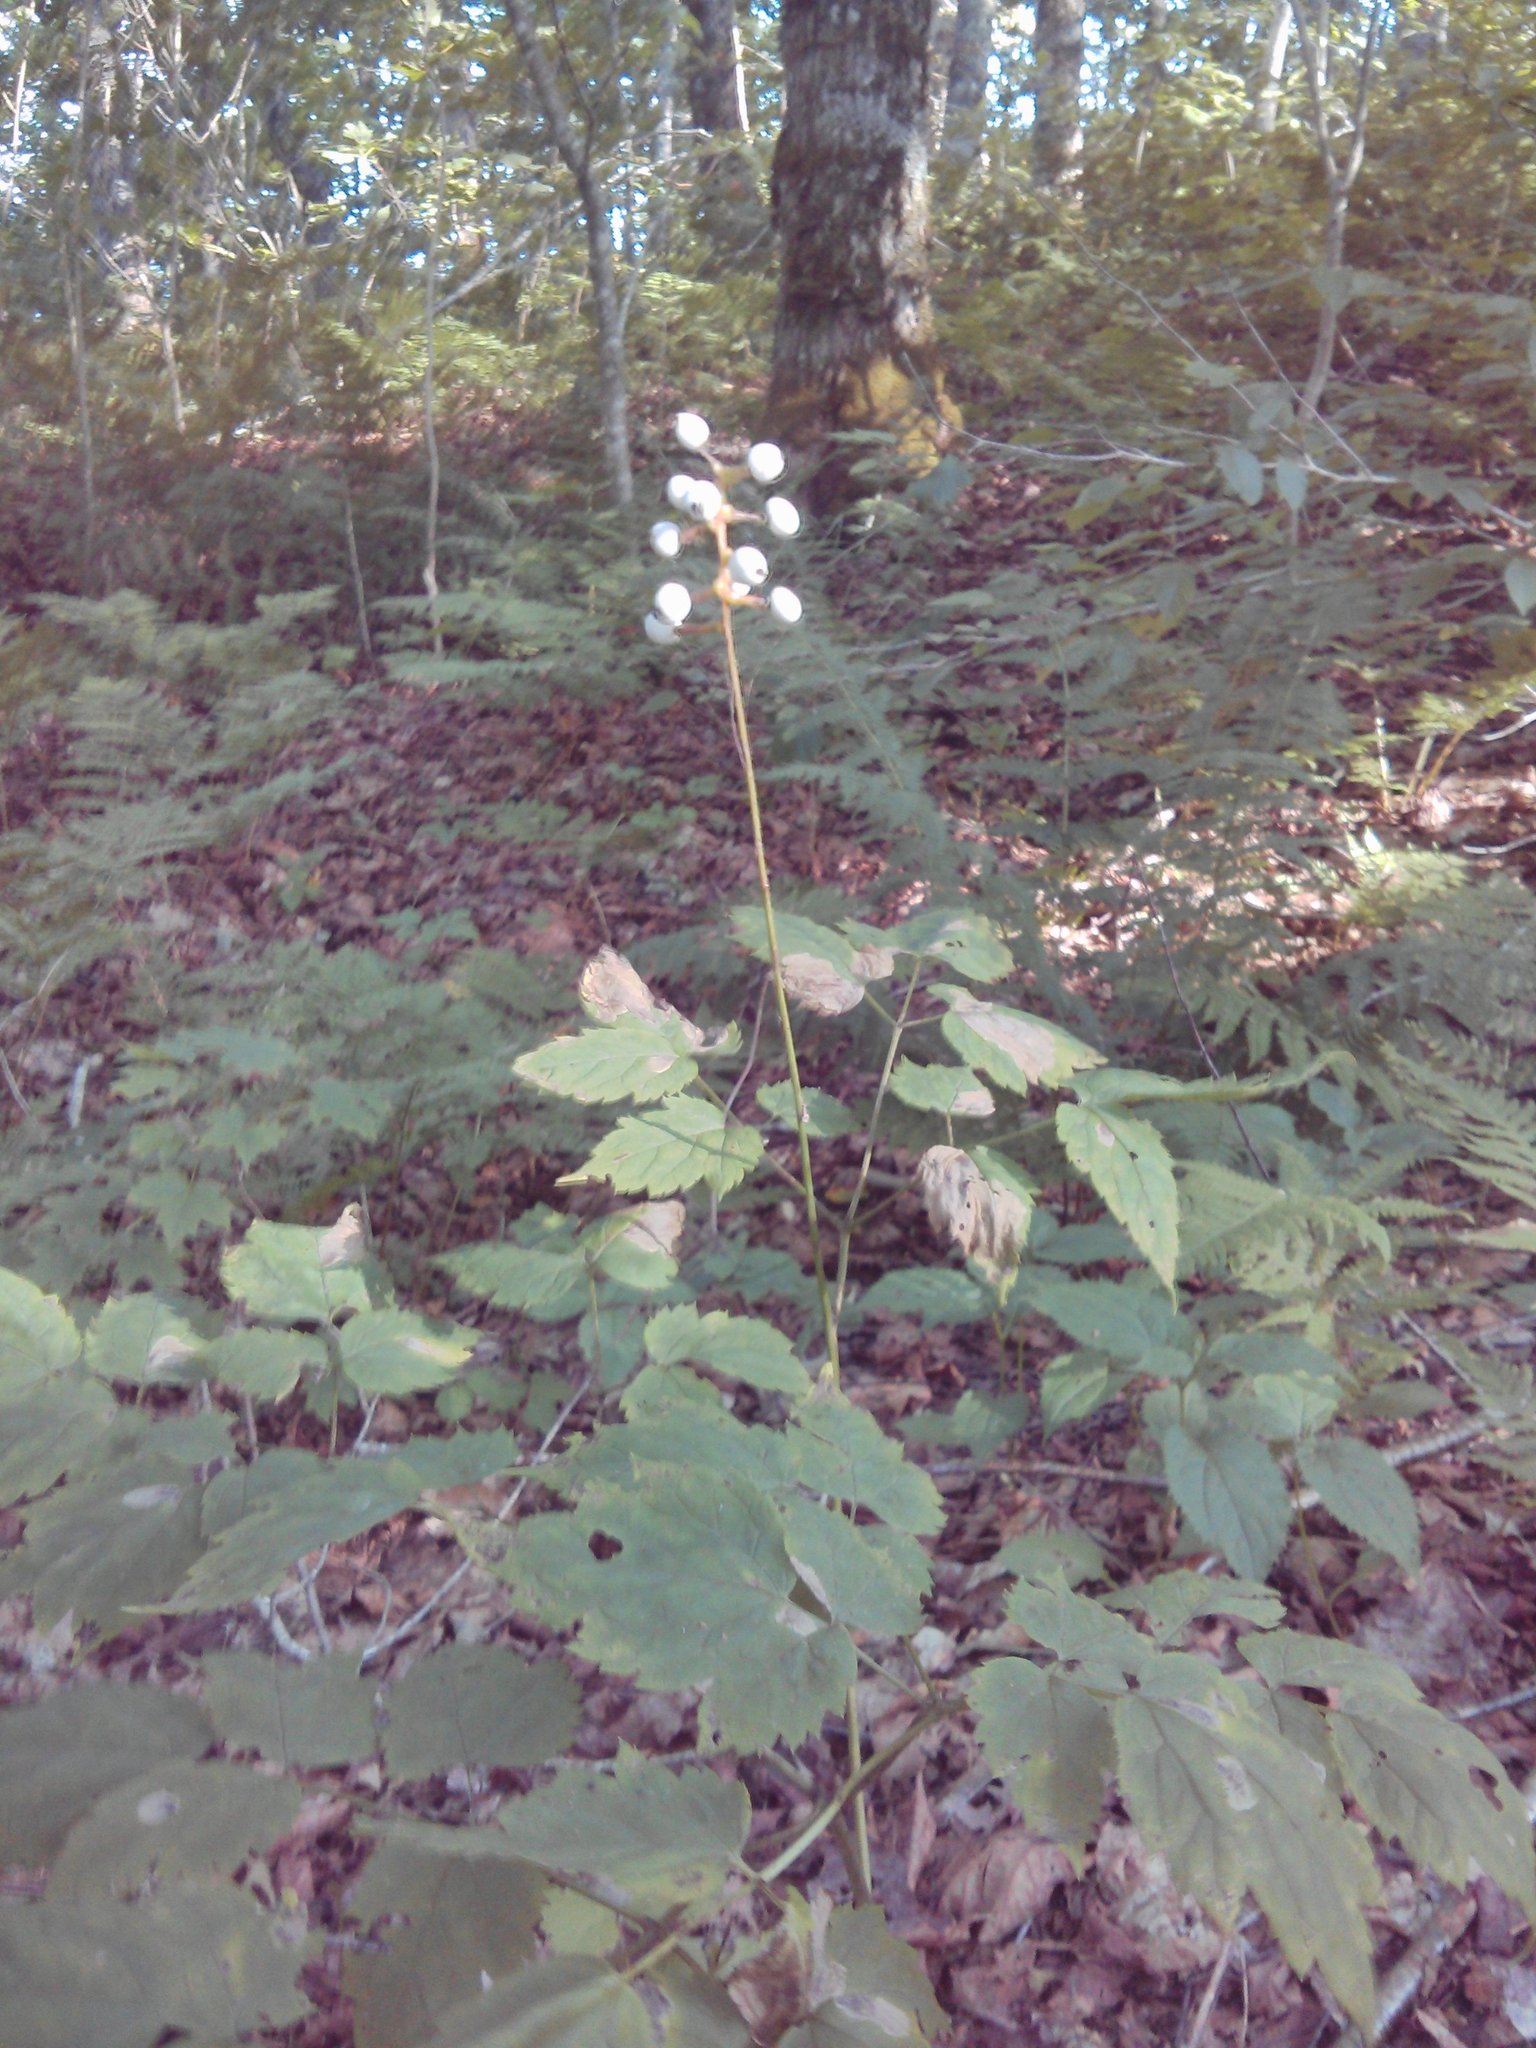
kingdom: Plantae
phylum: Tracheophyta
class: Magnoliopsida
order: Ranunculales
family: Ranunculaceae
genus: Actaea
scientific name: Actaea pachypoda
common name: Doll's-eyes
